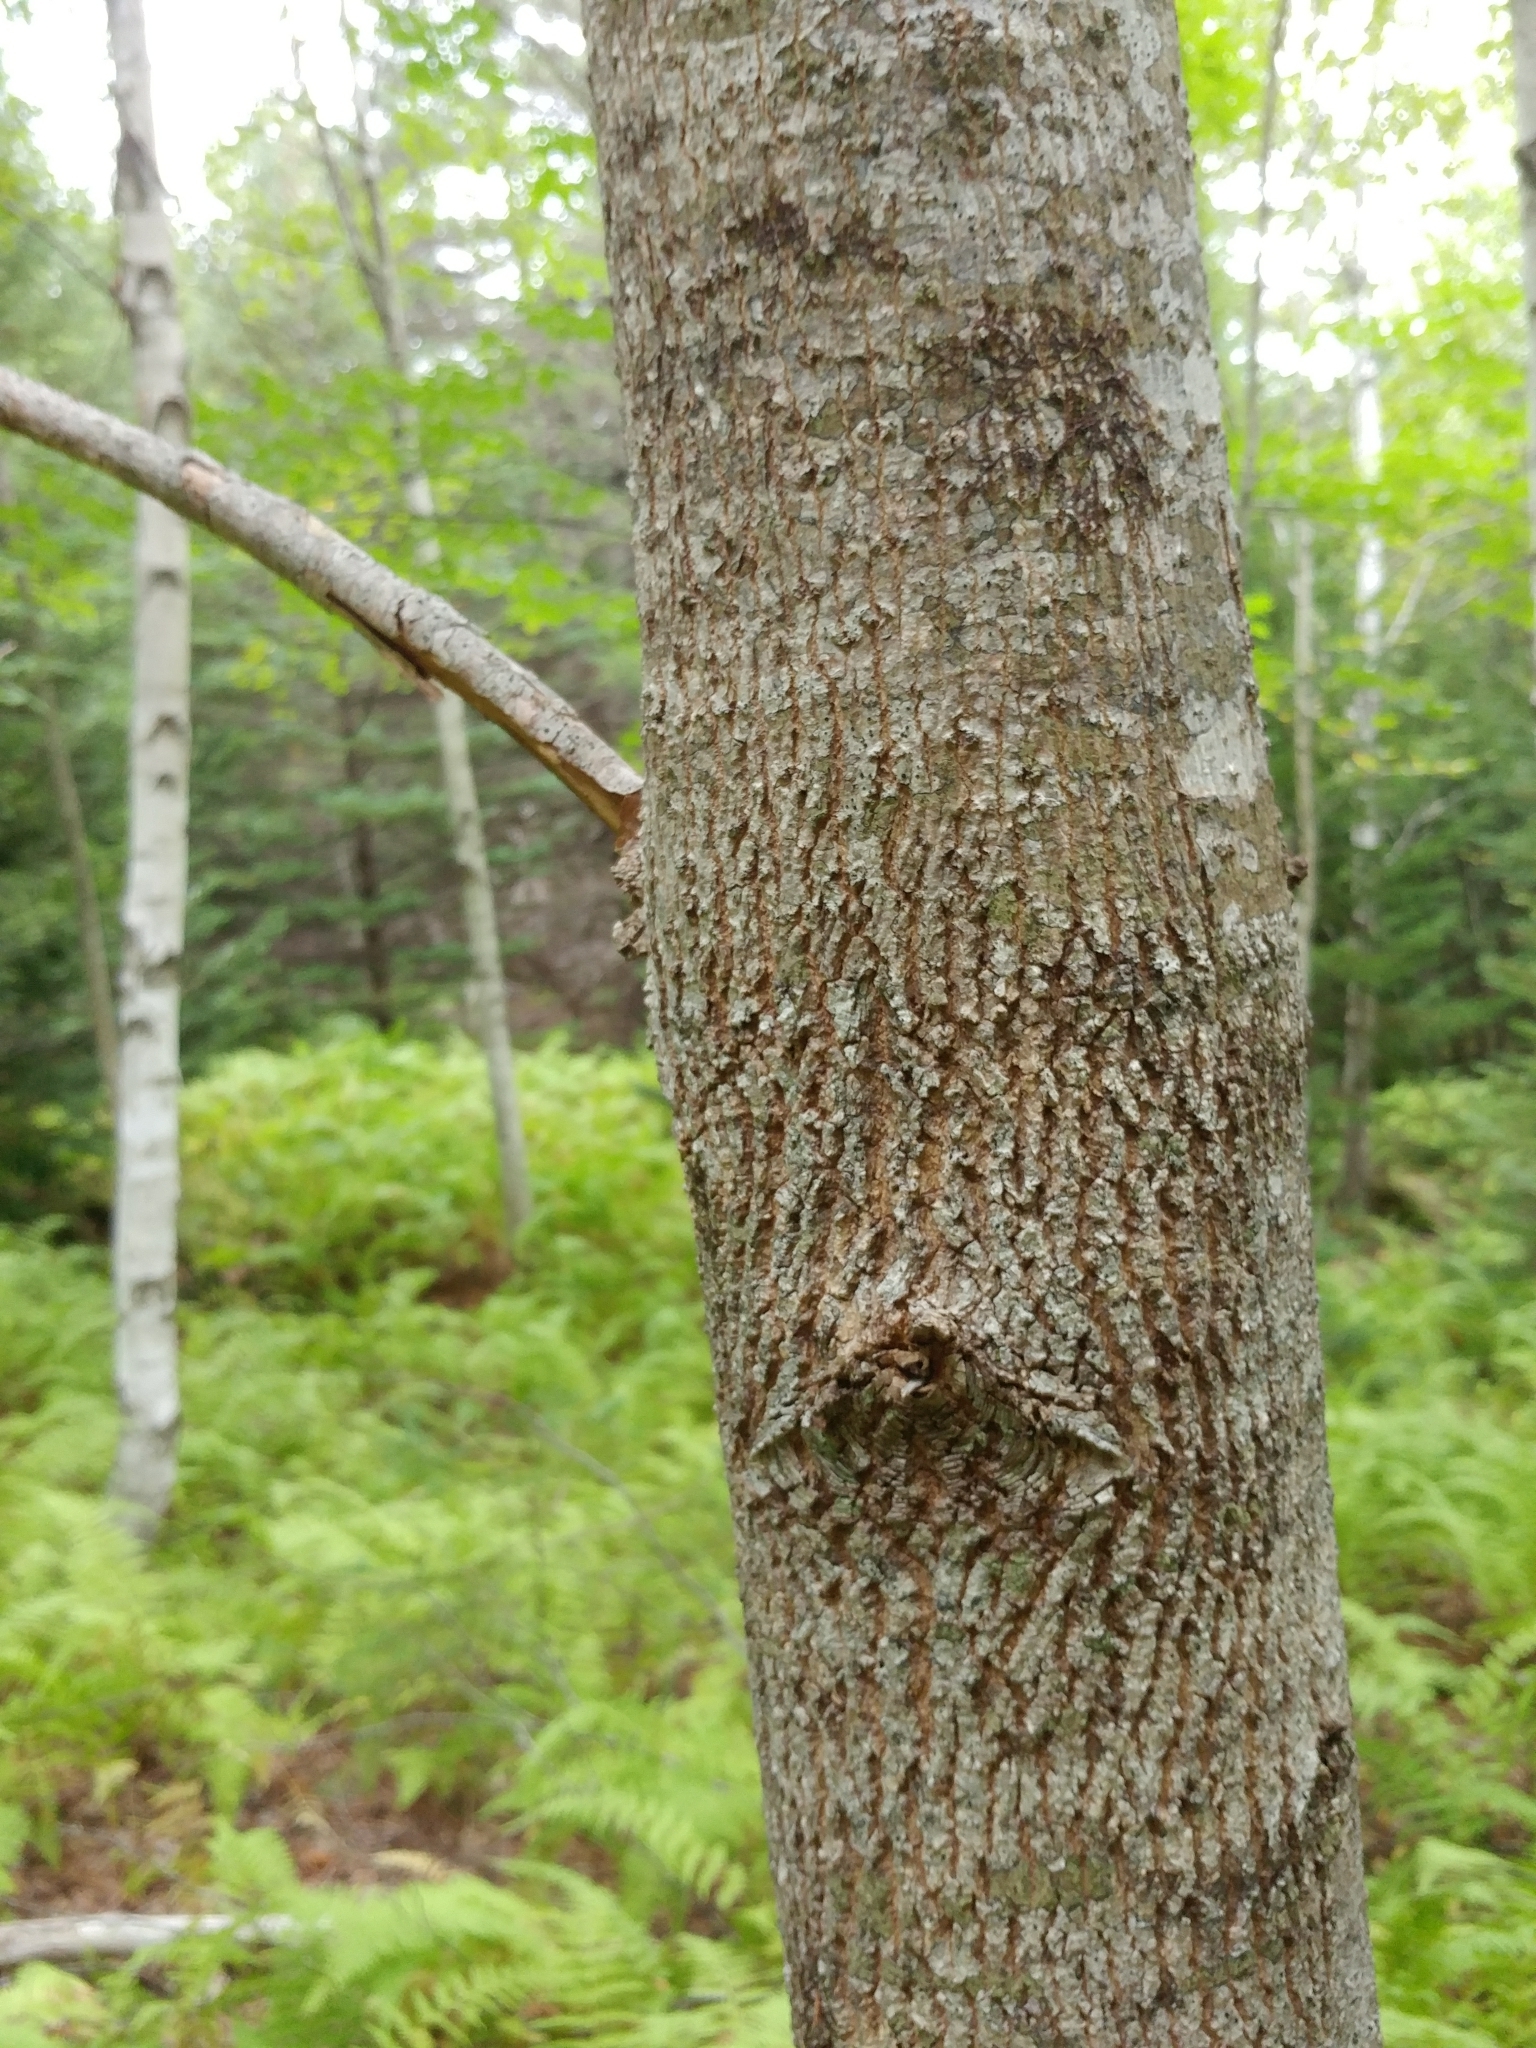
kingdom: Plantae
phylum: Tracheophyta
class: Magnoliopsida
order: Lamiales
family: Oleaceae
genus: Fraxinus
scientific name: Fraxinus americana
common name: White ash
